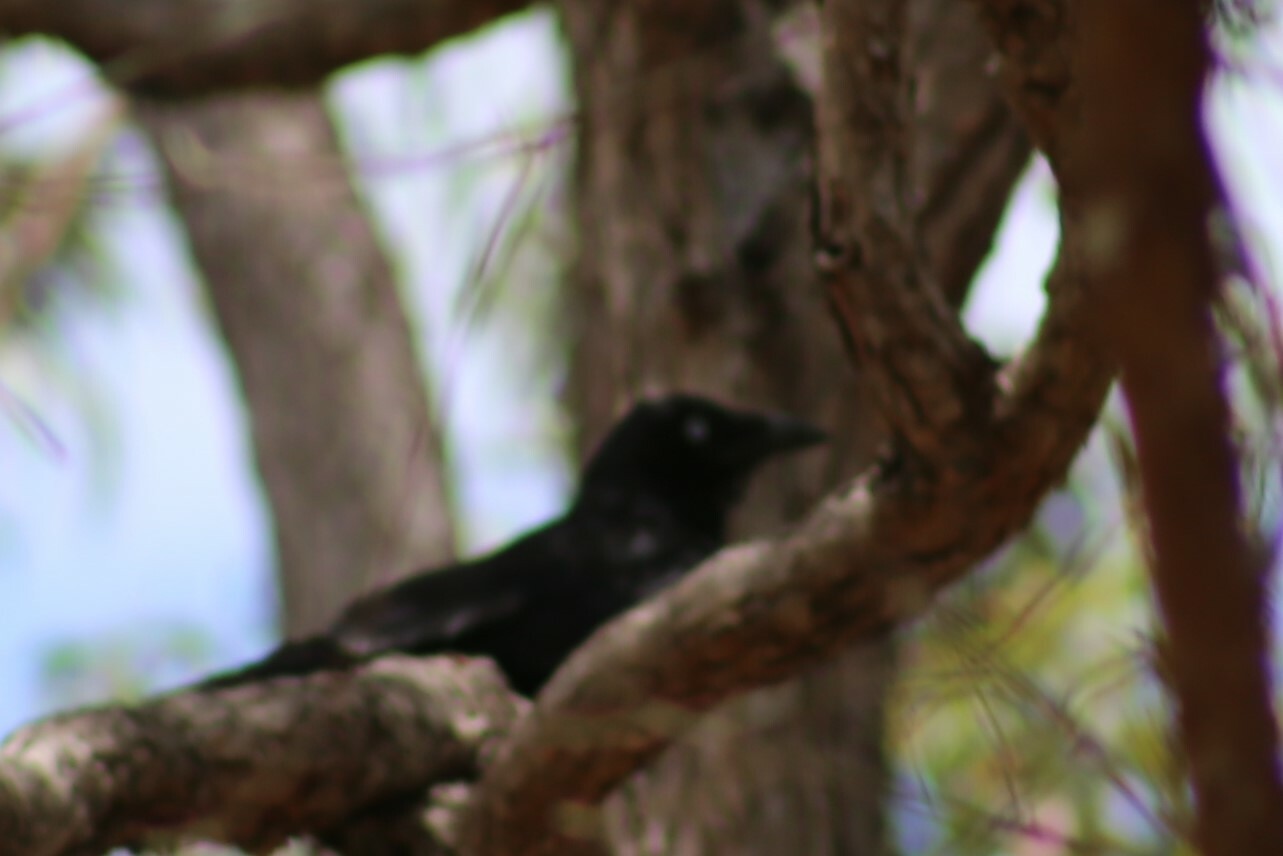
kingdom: Animalia
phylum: Chordata
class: Aves
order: Passeriformes
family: Corvidae
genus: Corvus
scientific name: Corvus orru
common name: Torresian crow
